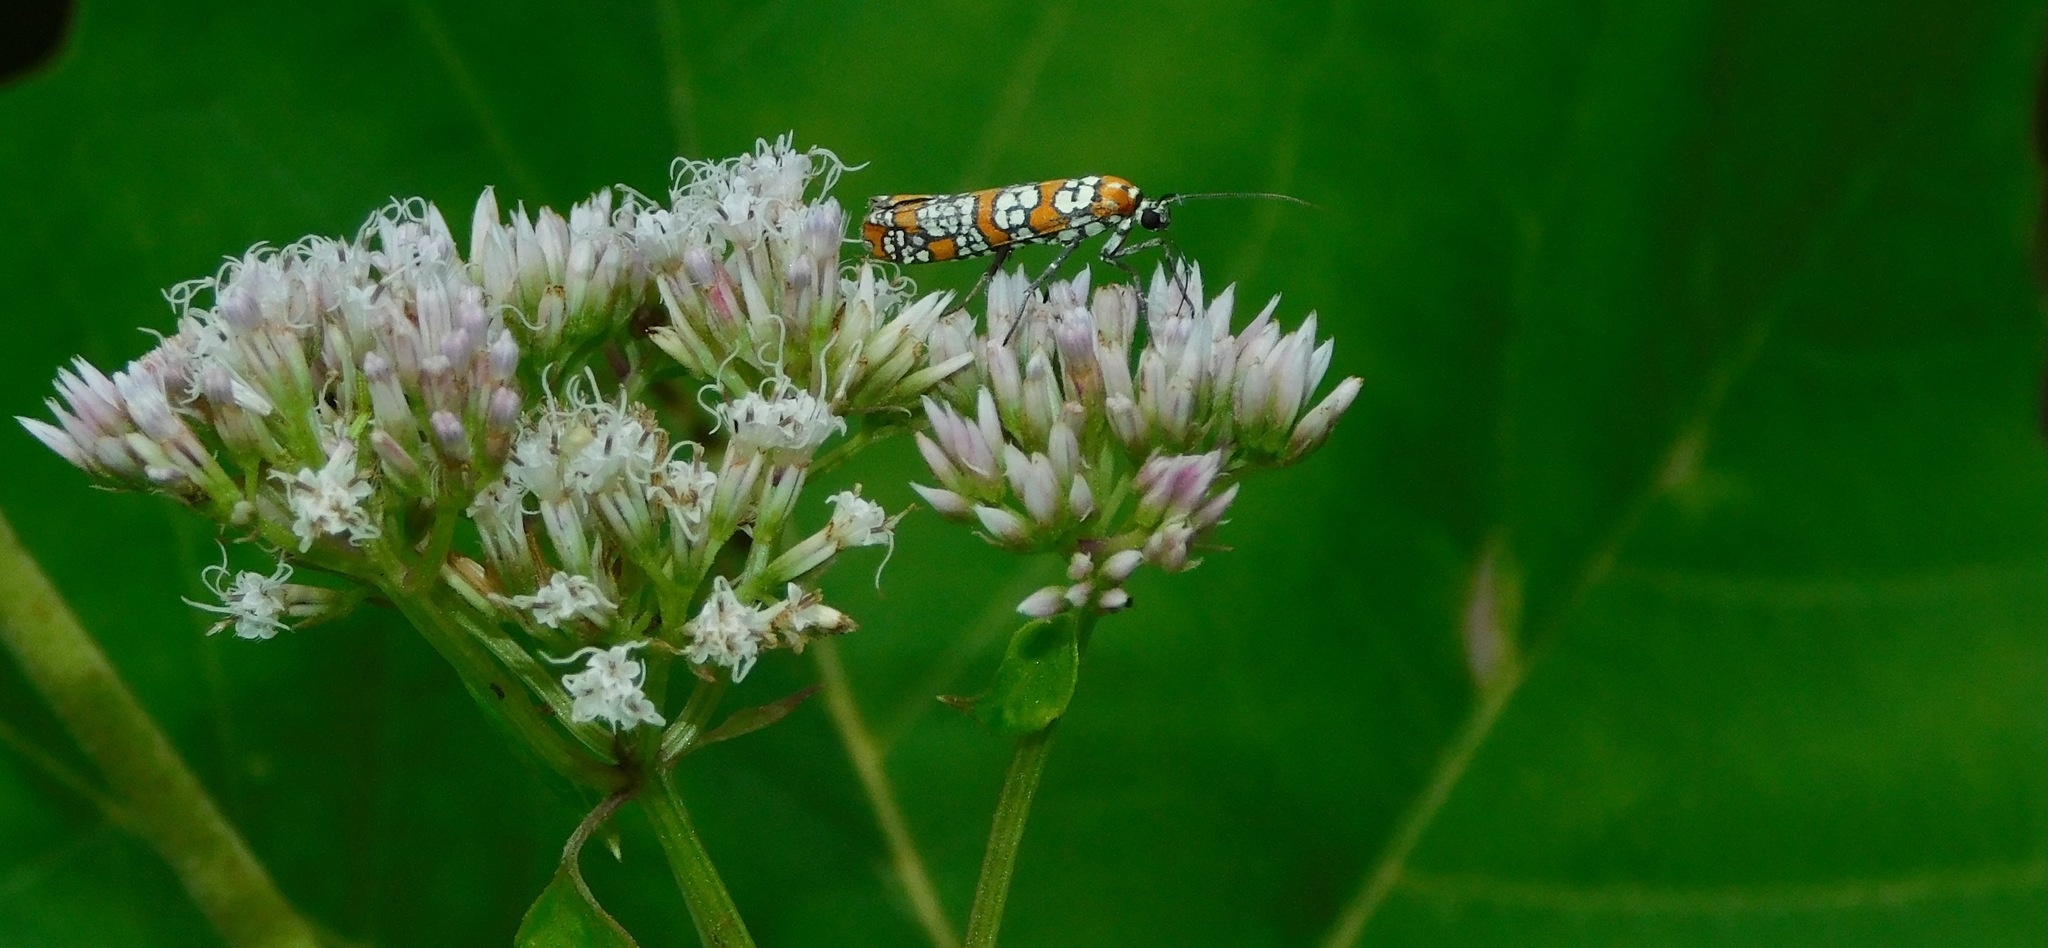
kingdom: Animalia
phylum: Arthropoda
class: Insecta
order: Lepidoptera
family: Attevidae
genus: Atteva
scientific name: Atteva punctella
